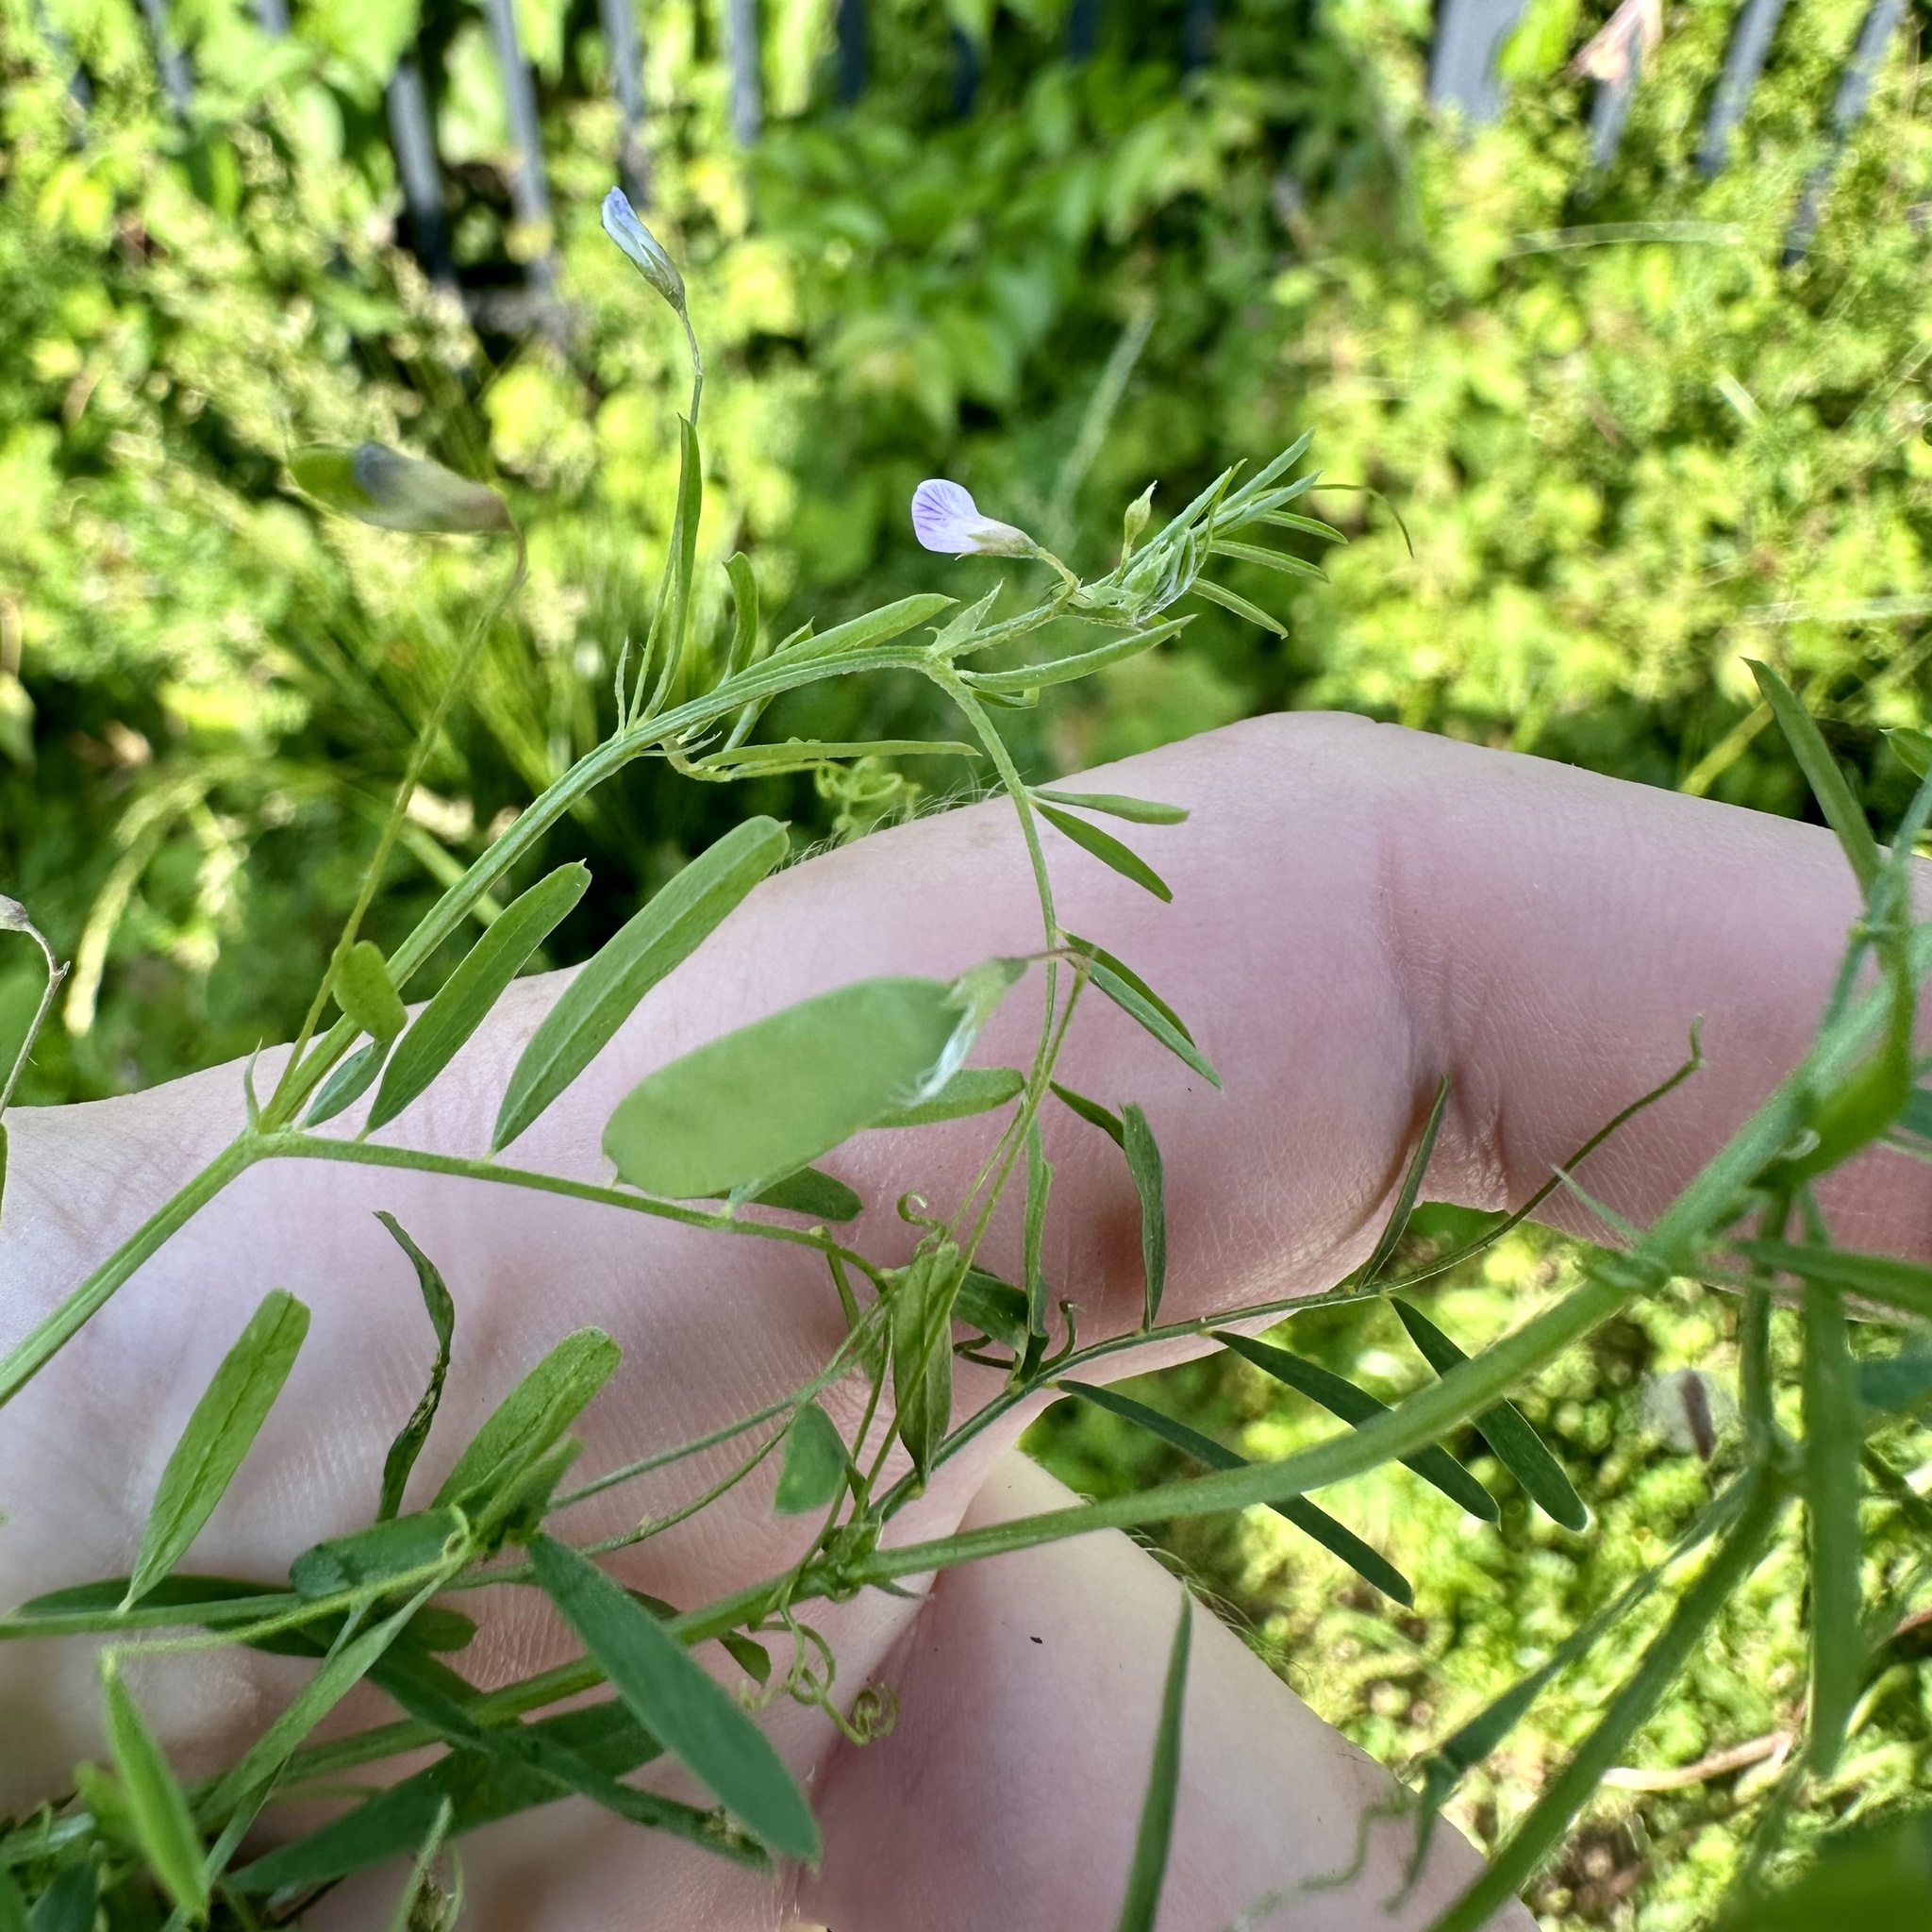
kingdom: Plantae
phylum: Tracheophyta
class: Magnoliopsida
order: Fabales
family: Fabaceae
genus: Vicia
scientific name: Vicia tetrasperma
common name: Smooth tare
